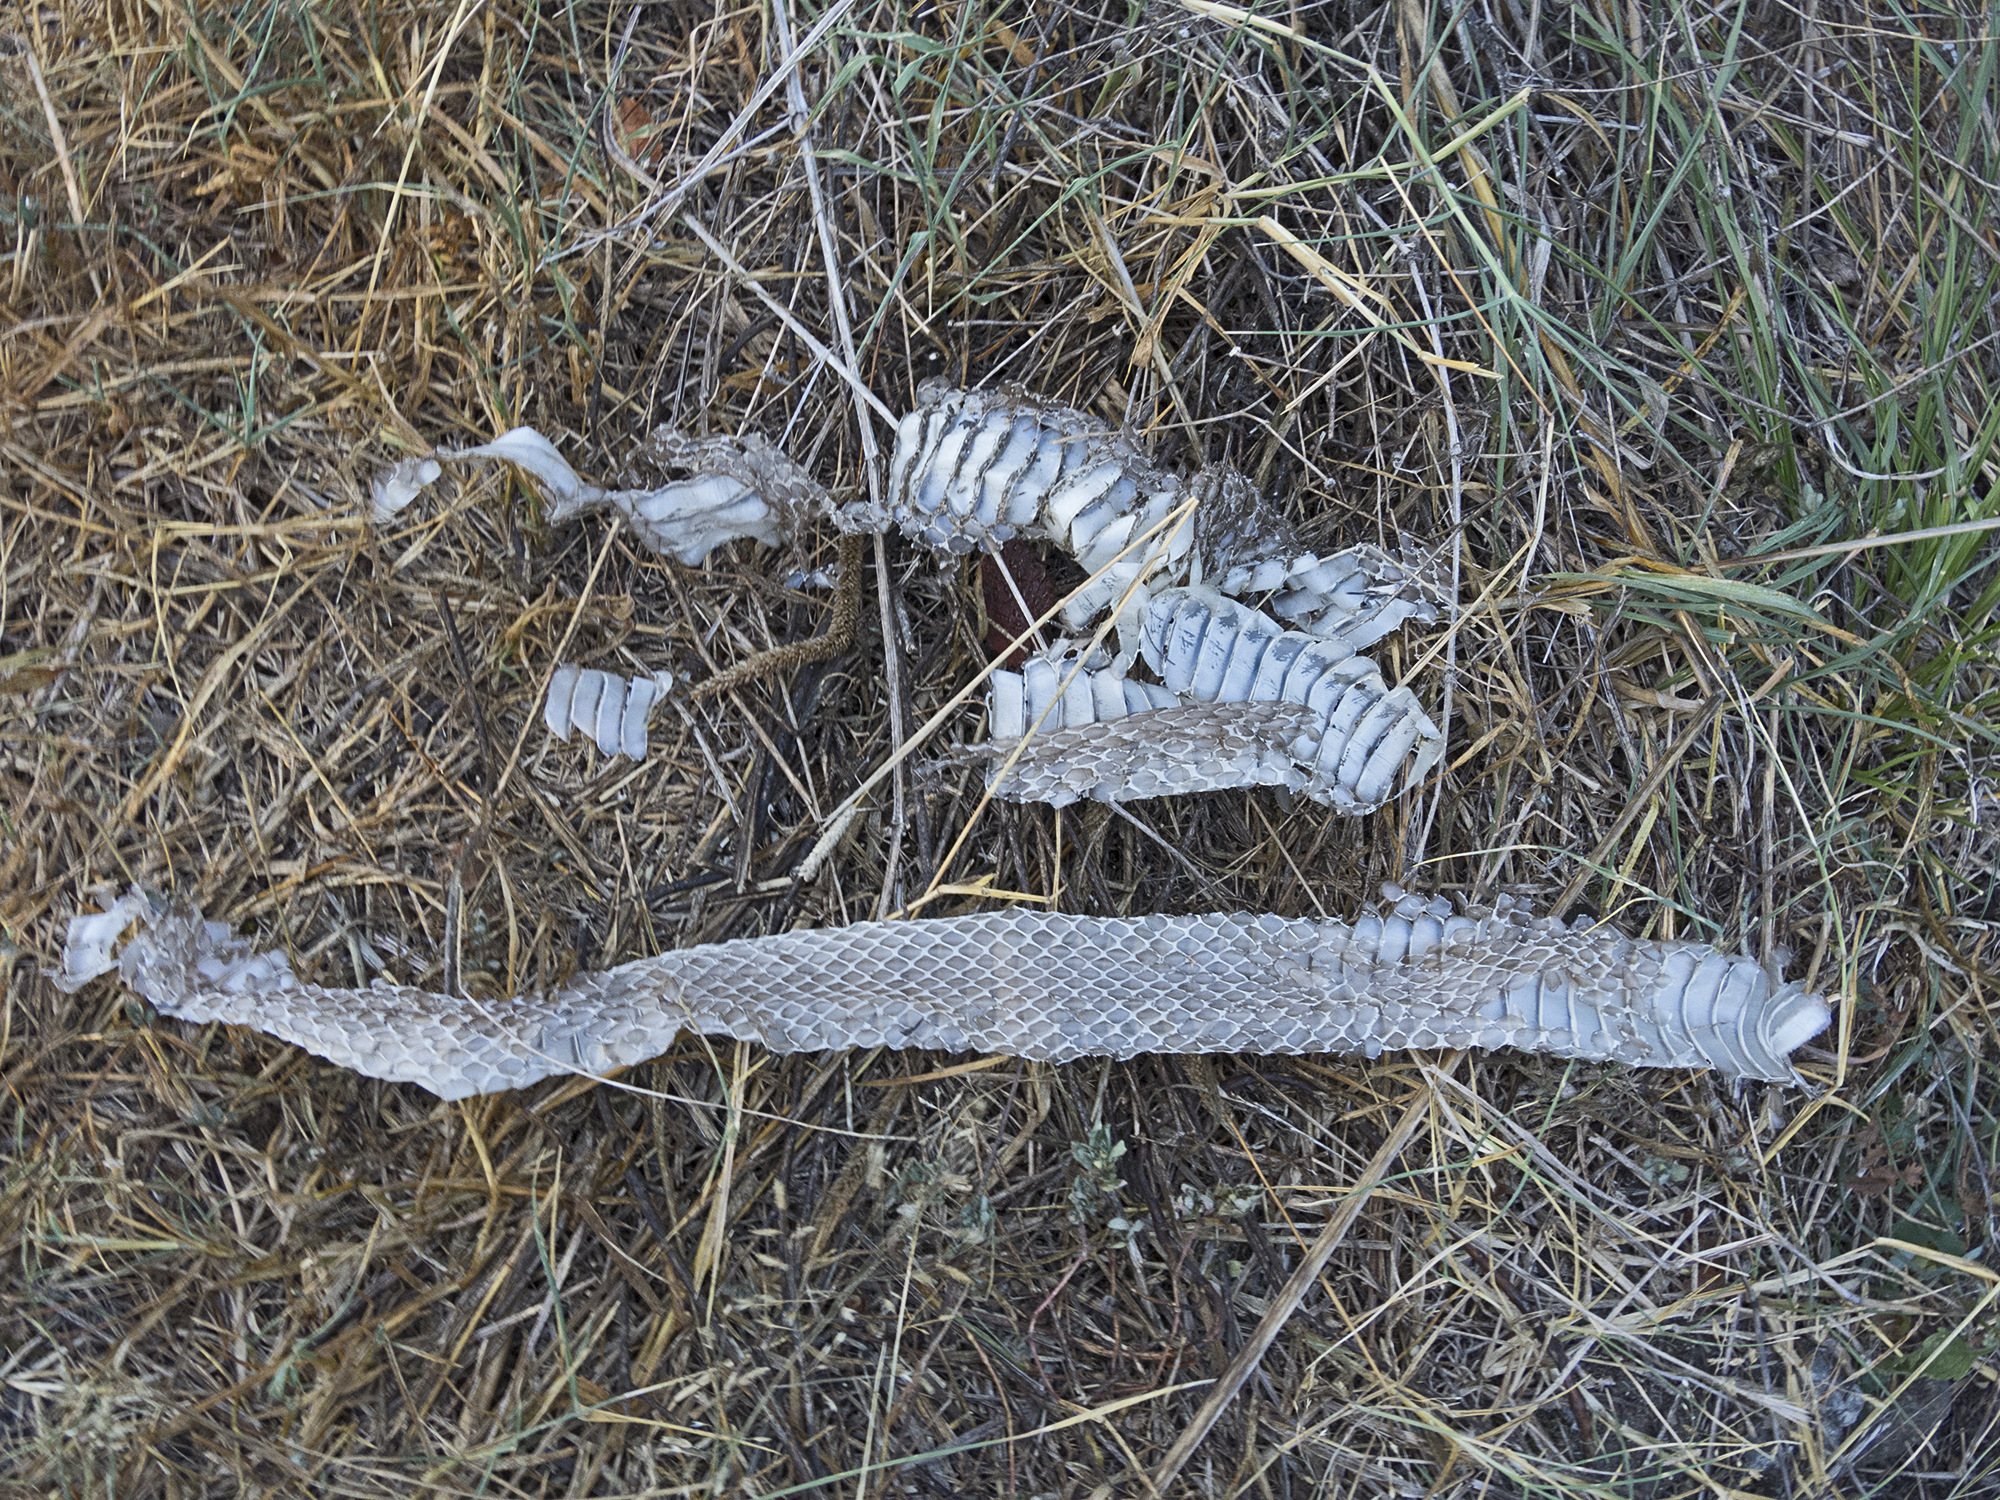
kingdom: Animalia
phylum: Chordata
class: Squamata
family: Colubridae
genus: Dolichophis
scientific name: Dolichophis caspius
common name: Large whip snake
